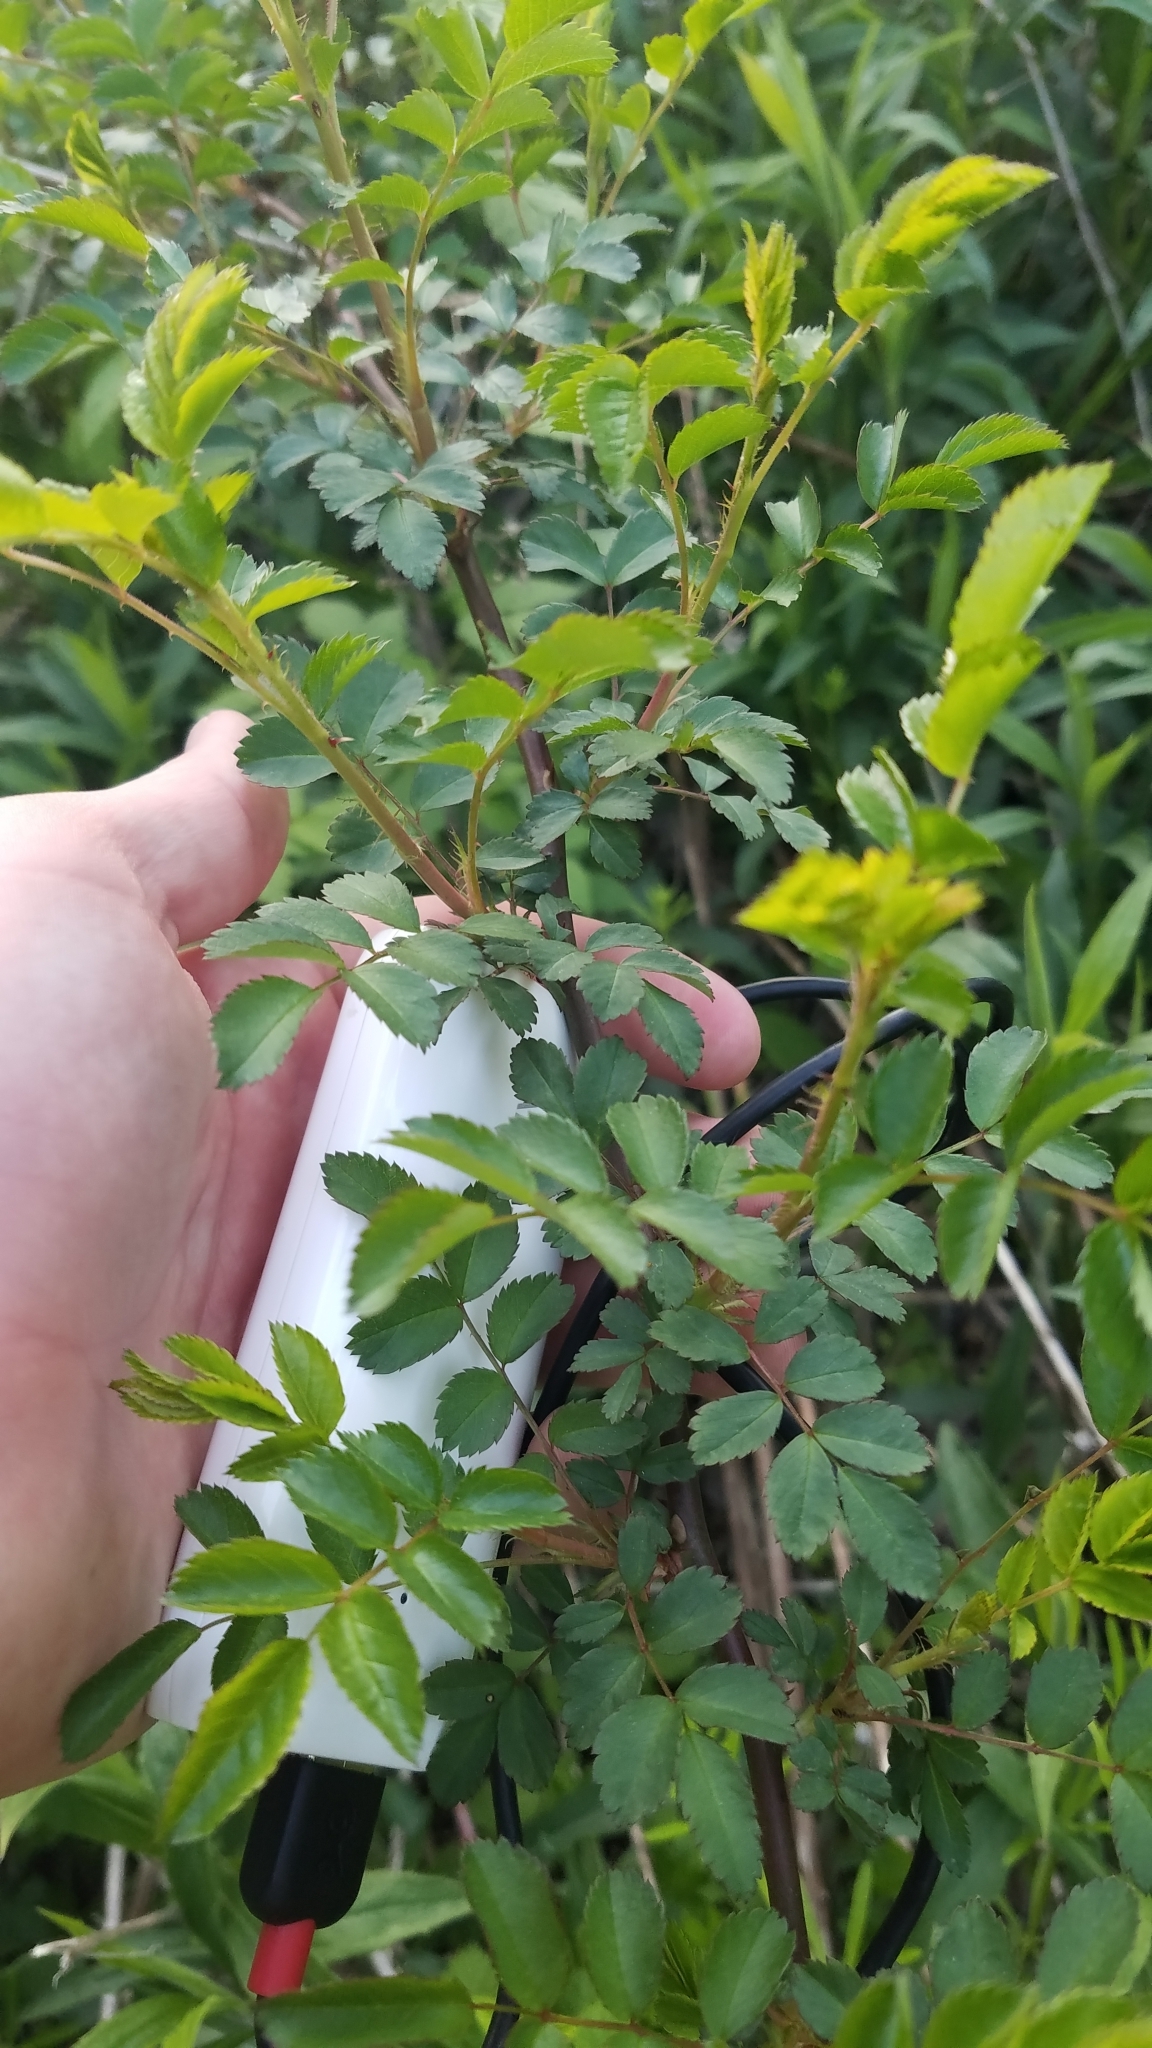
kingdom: Plantae
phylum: Tracheophyta
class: Magnoliopsida
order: Rosales
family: Rosaceae
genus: Rosa
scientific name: Rosa multiflora
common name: Multiflora rose
